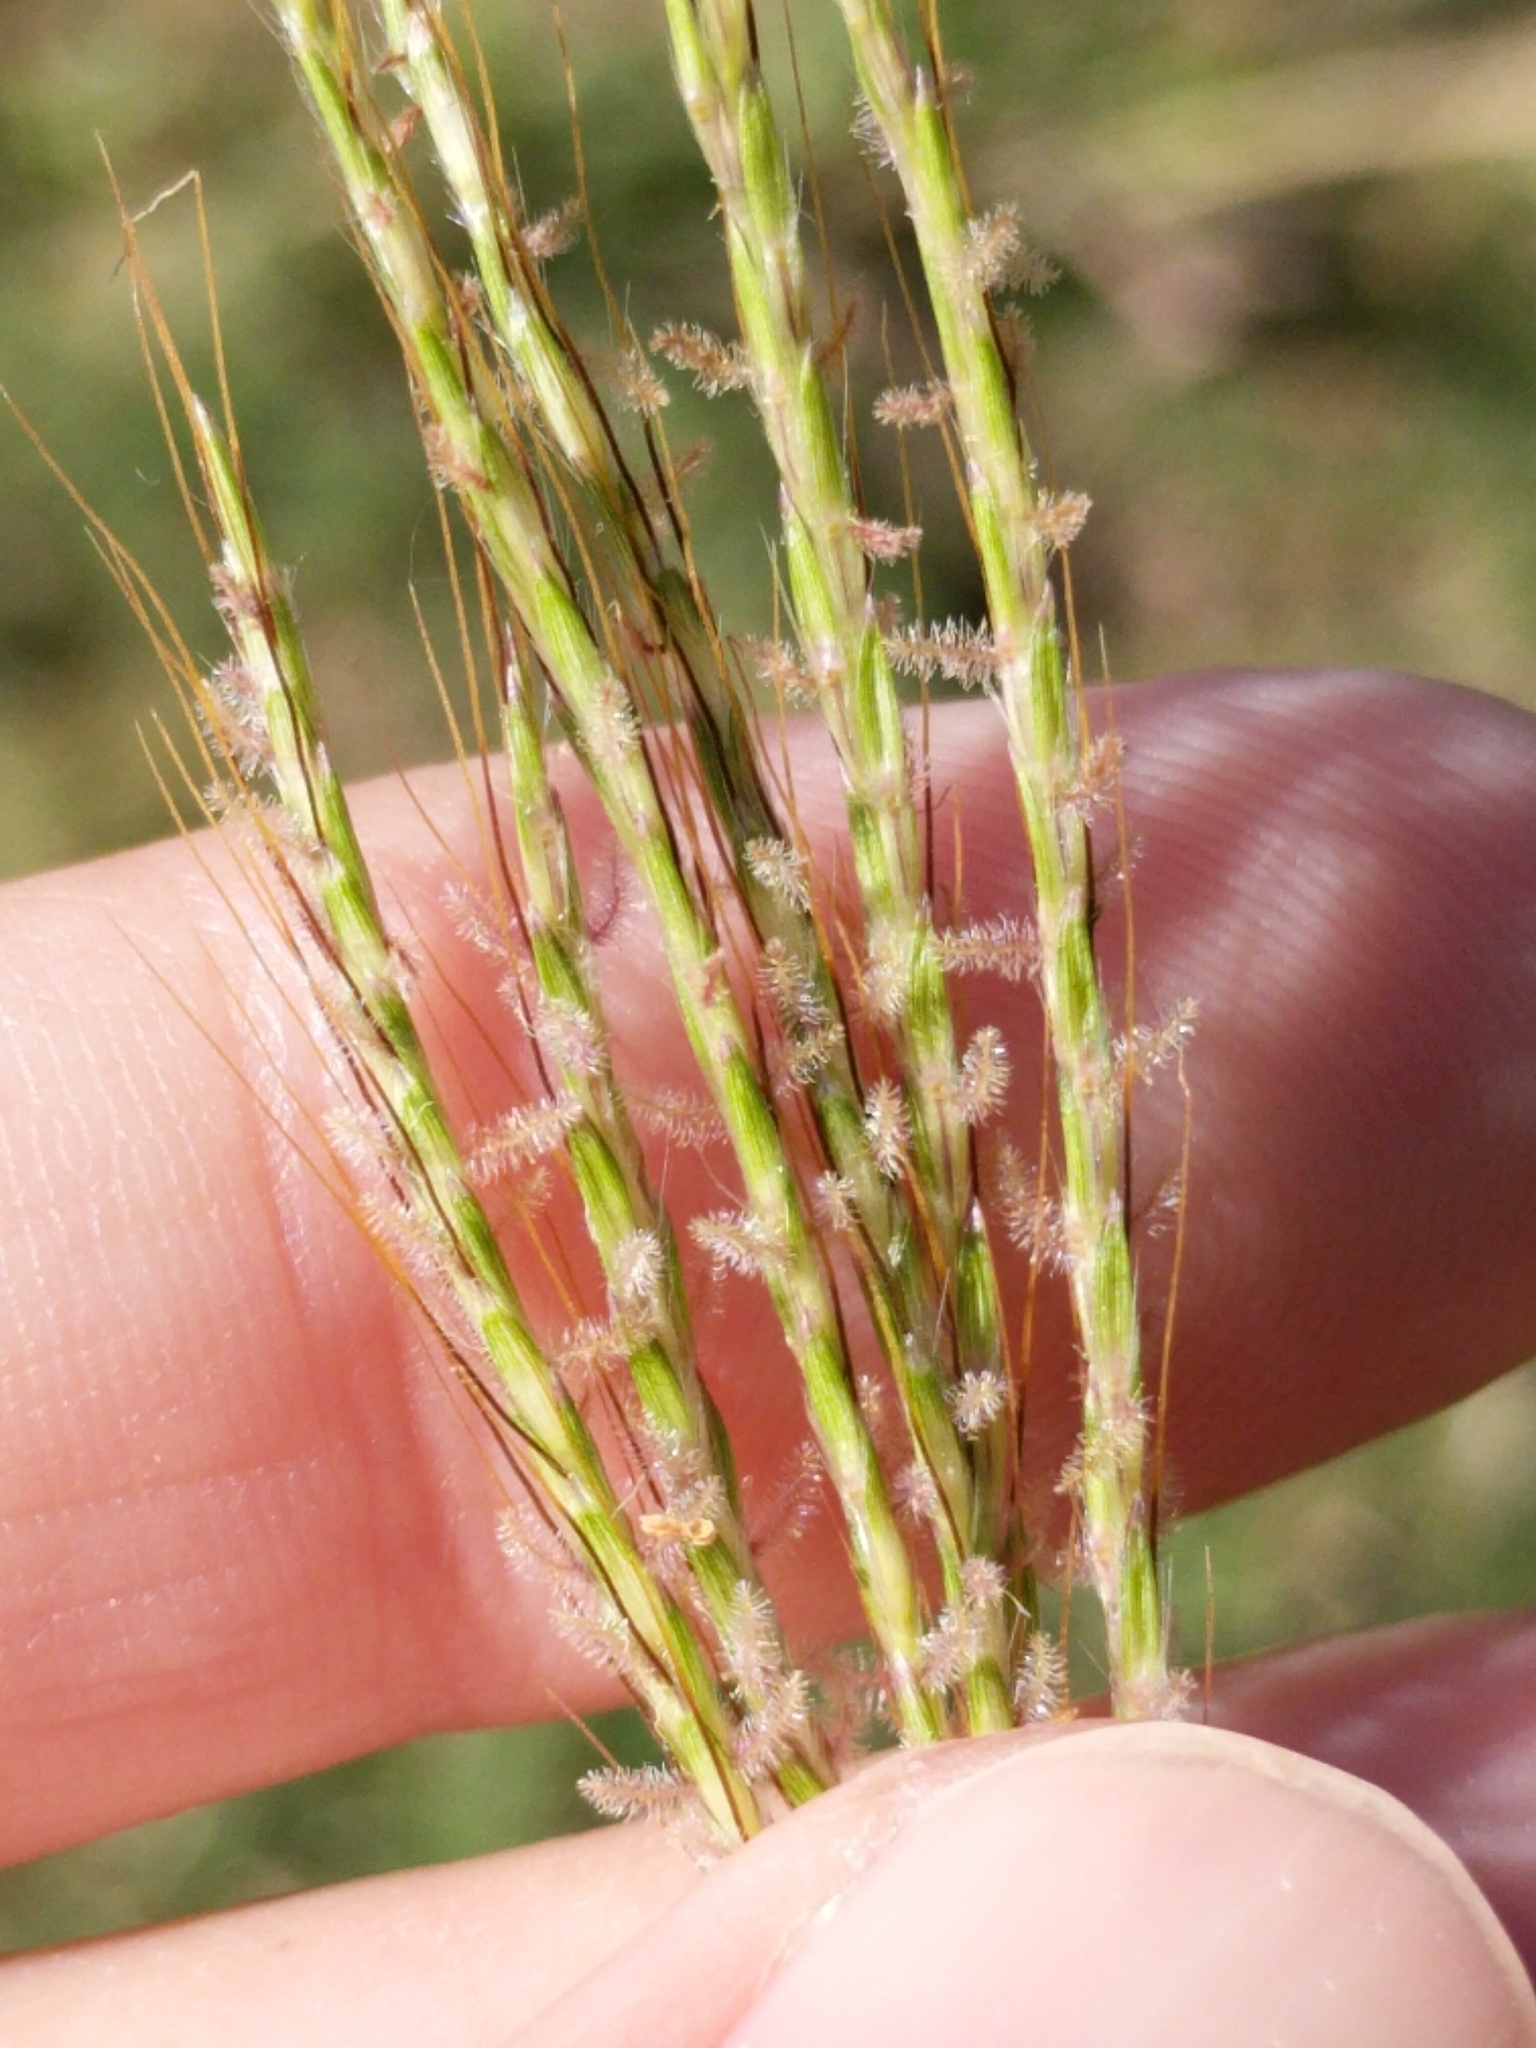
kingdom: Plantae
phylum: Tracheophyta
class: Liliopsida
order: Poales
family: Poaceae
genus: Bothriochloa
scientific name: Bothriochloa ischaemum
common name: Yellow bluestem
